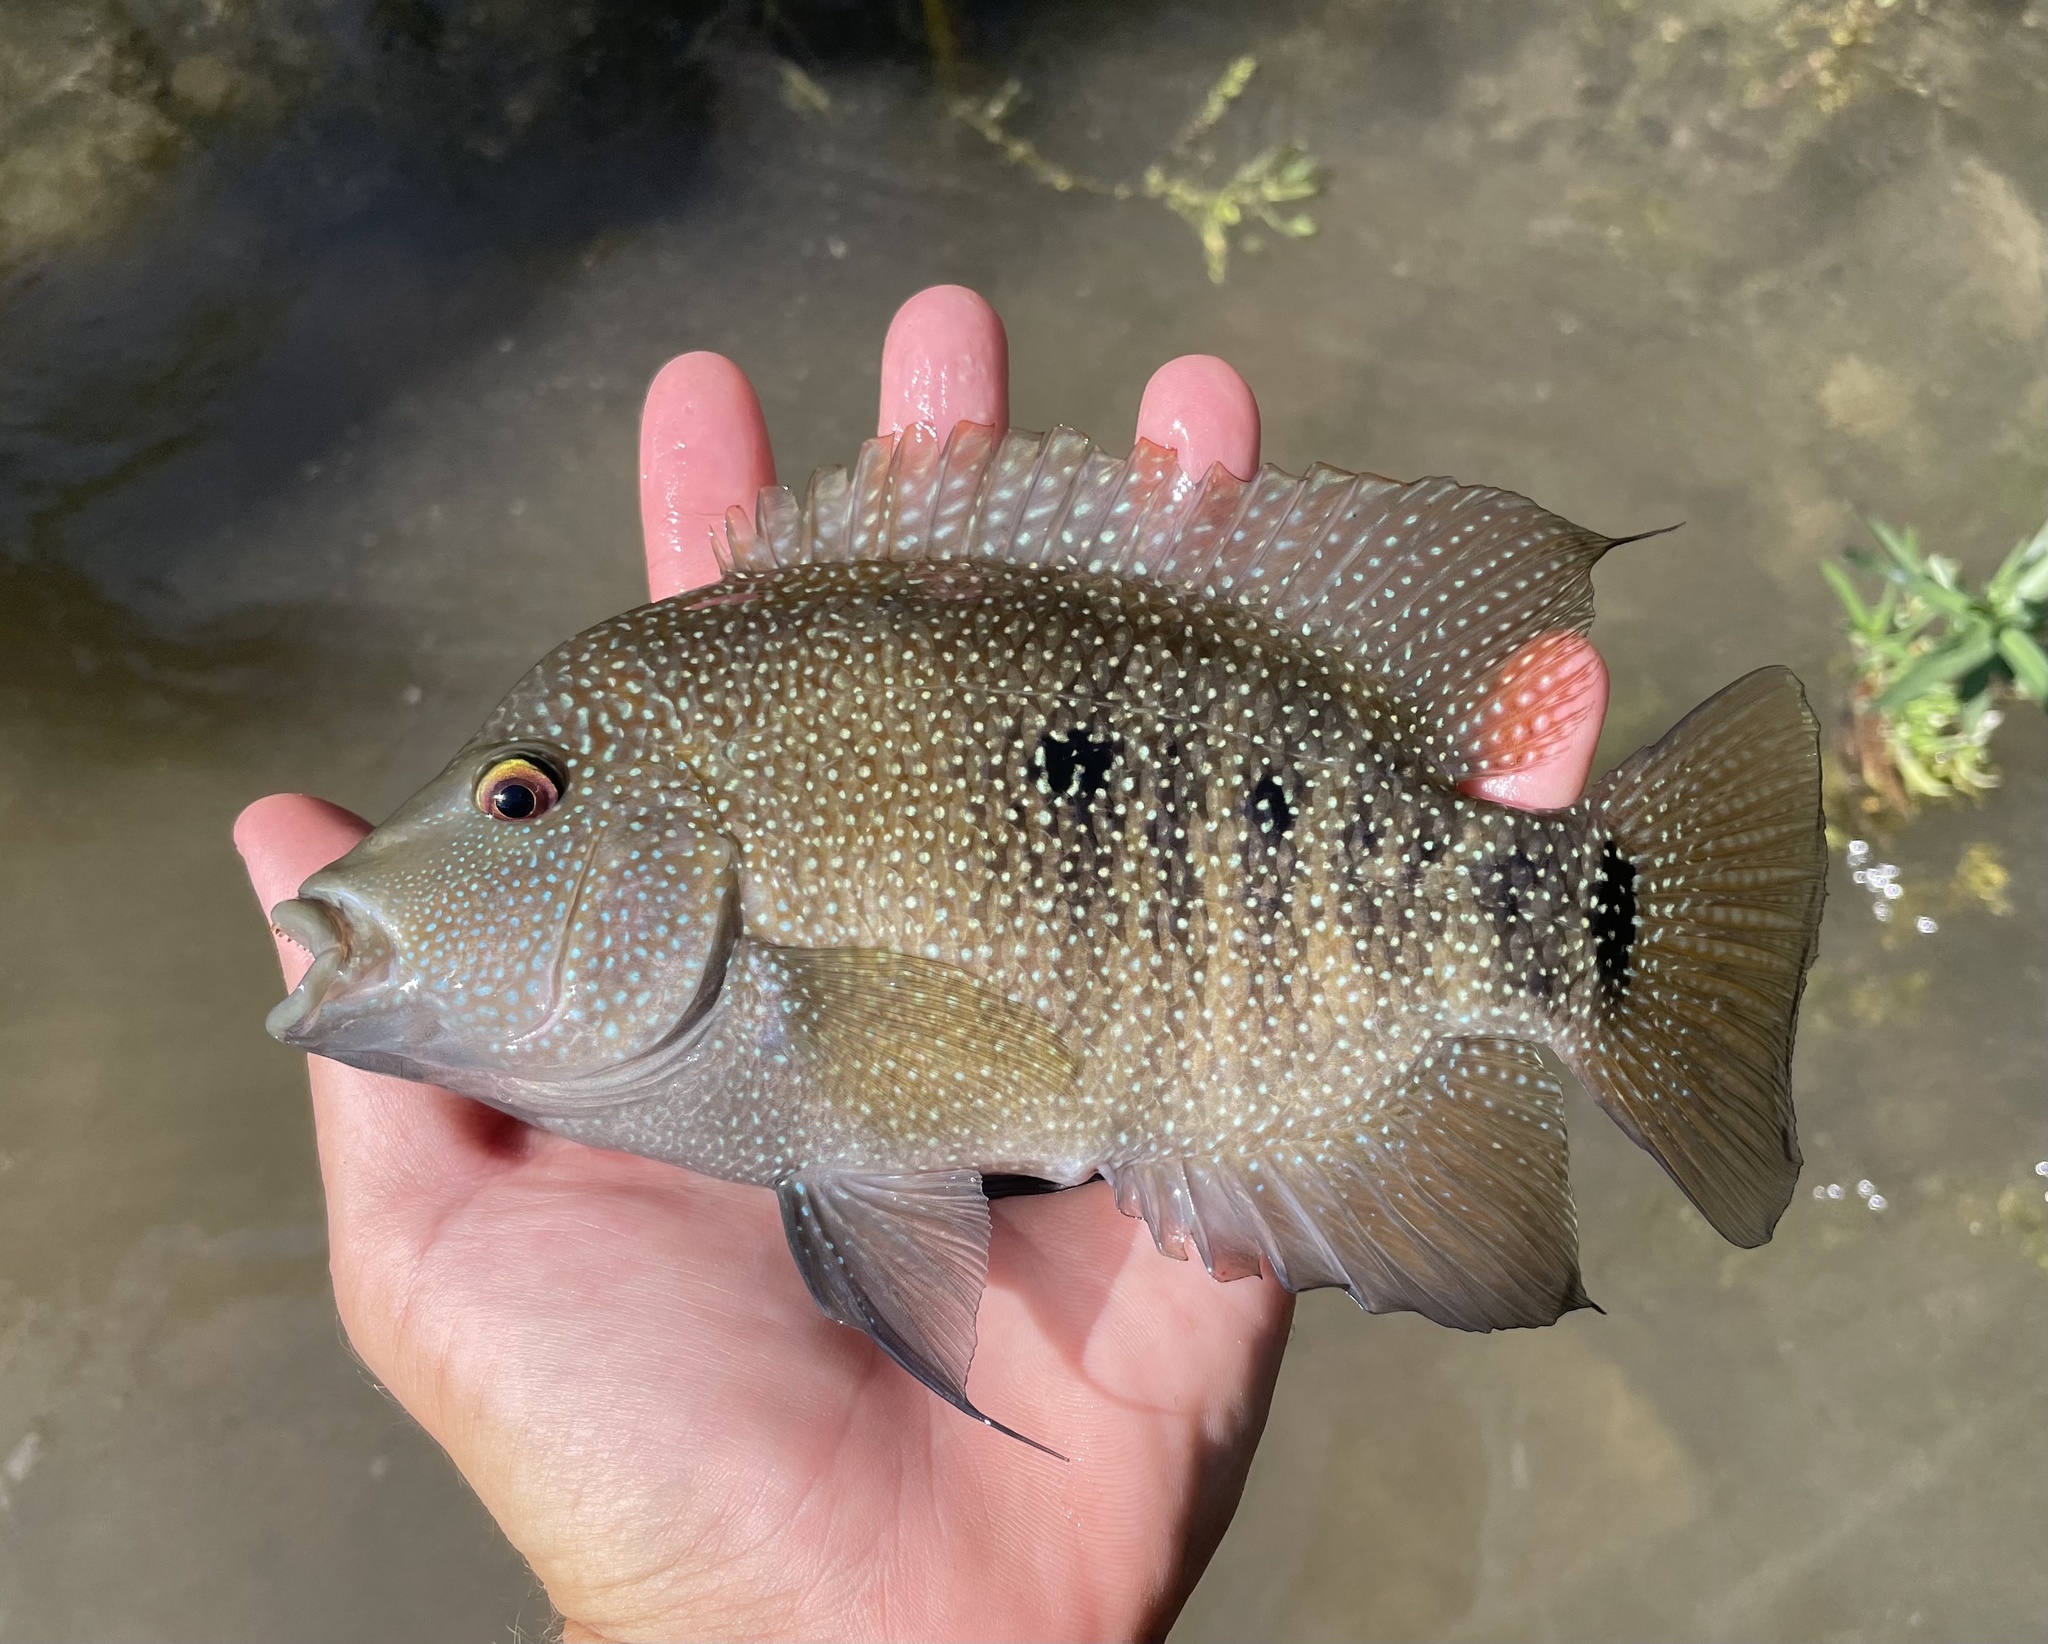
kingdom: Animalia
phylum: Chordata
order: Perciformes
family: Cichlidae
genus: Herichthys
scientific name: Herichthys cyanoguttatus
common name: Rio grande cichlid
